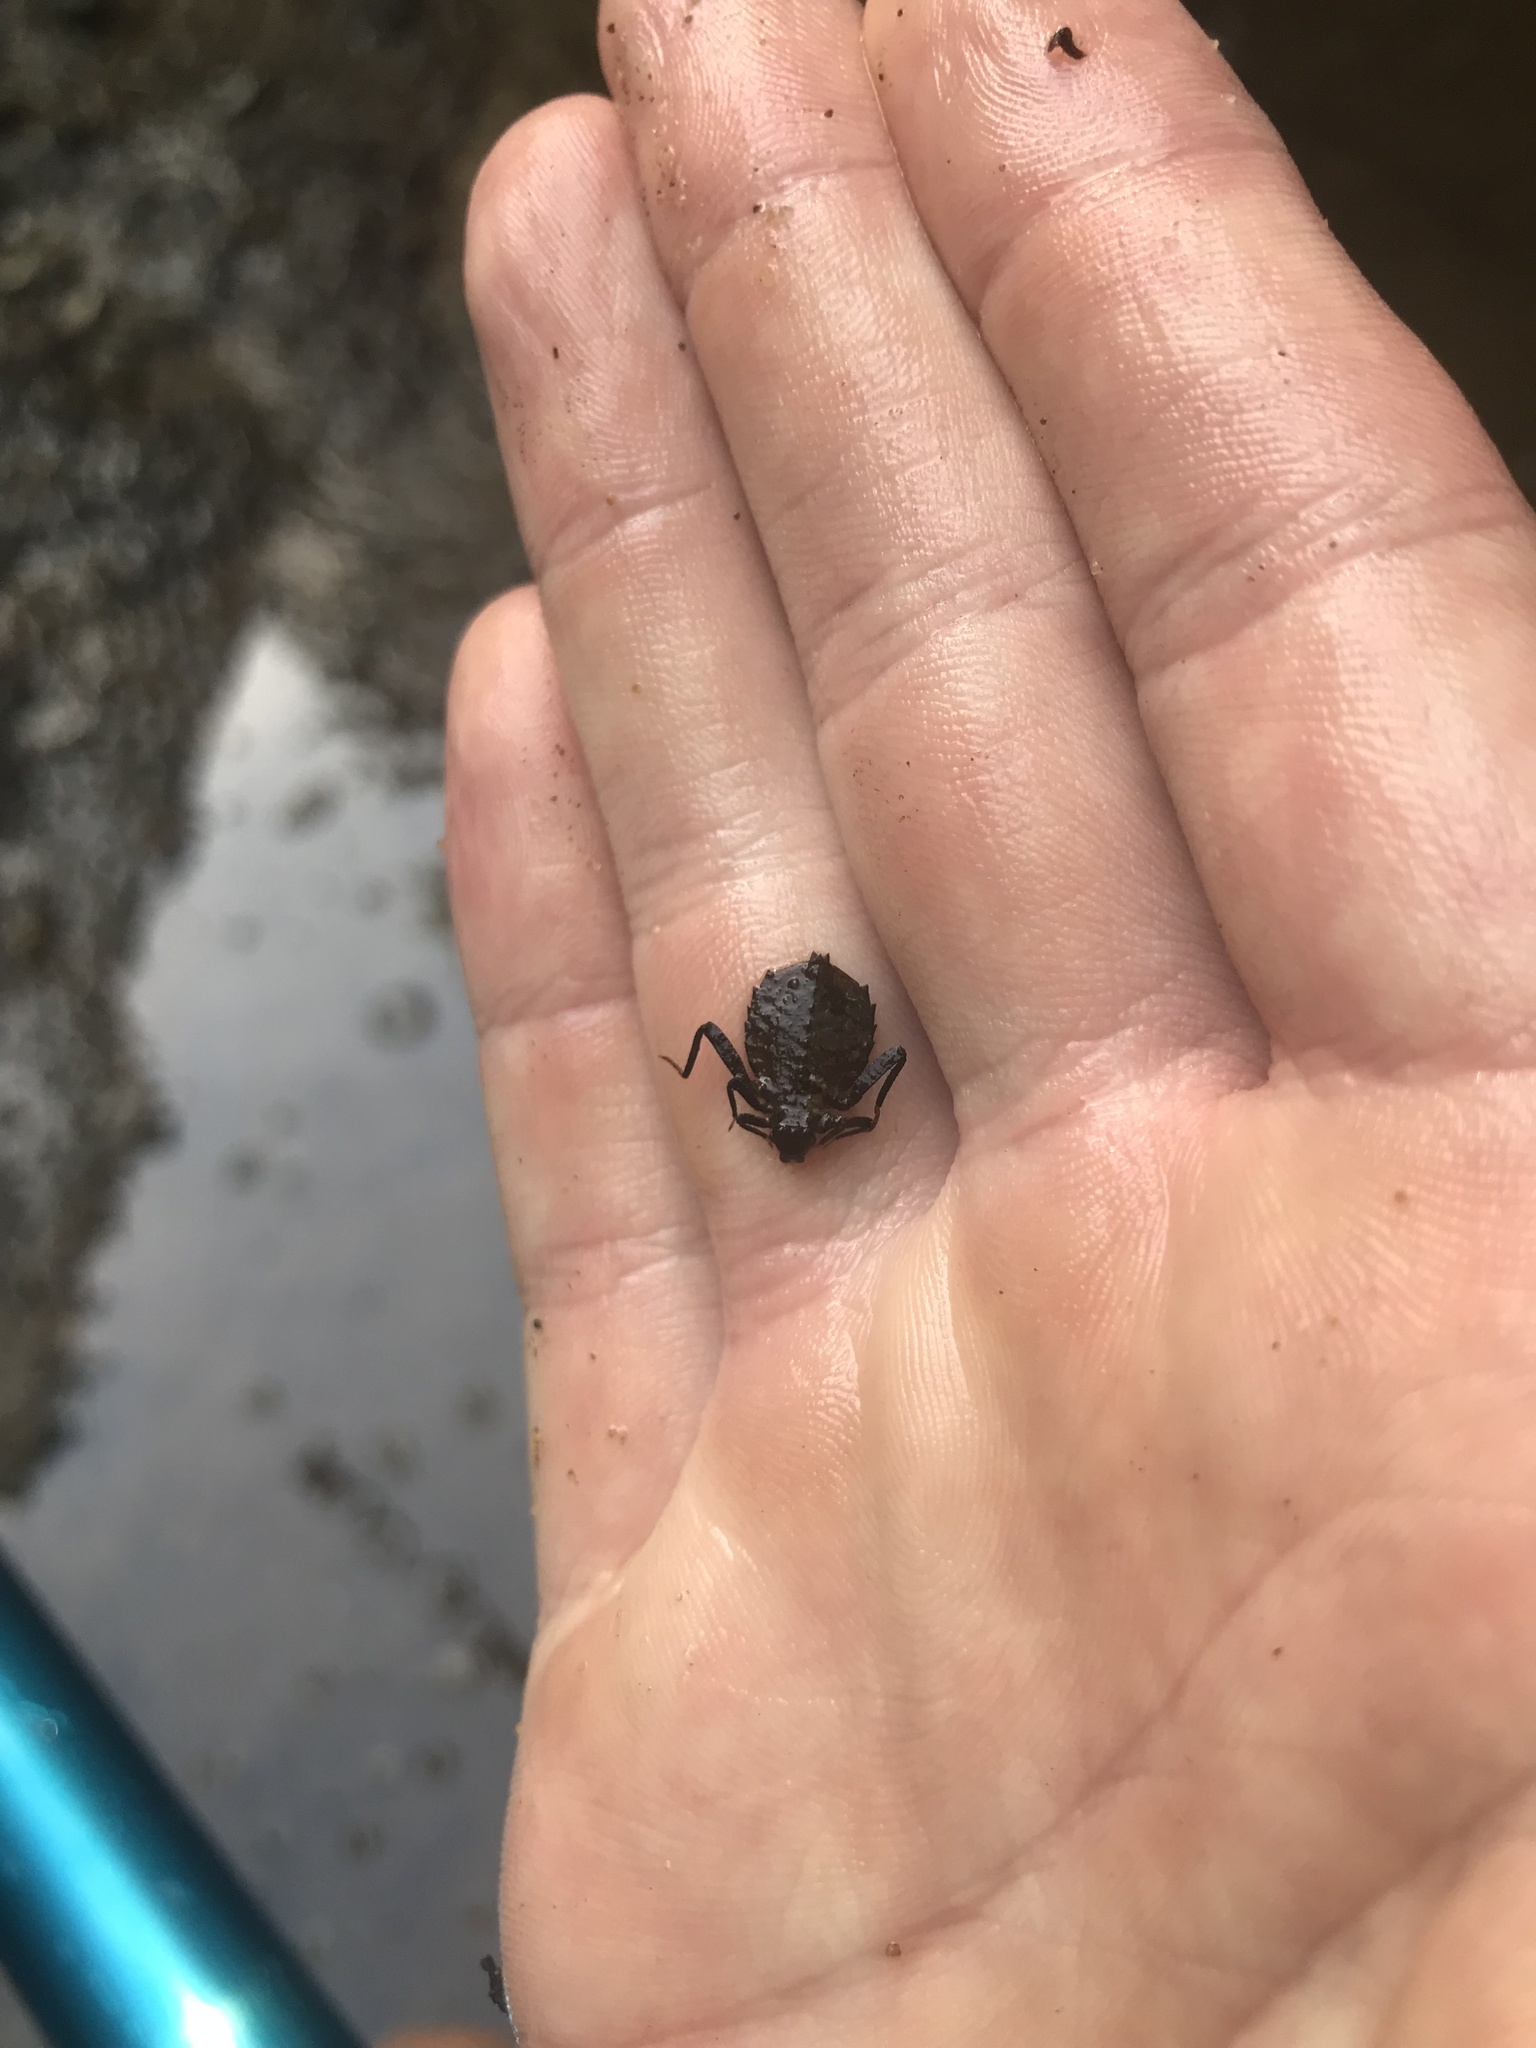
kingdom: Animalia
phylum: Arthropoda
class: Insecta
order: Odonata
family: Gomphidae
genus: Hagenius
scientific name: Hagenius brevistylus
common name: Dragonhunter
